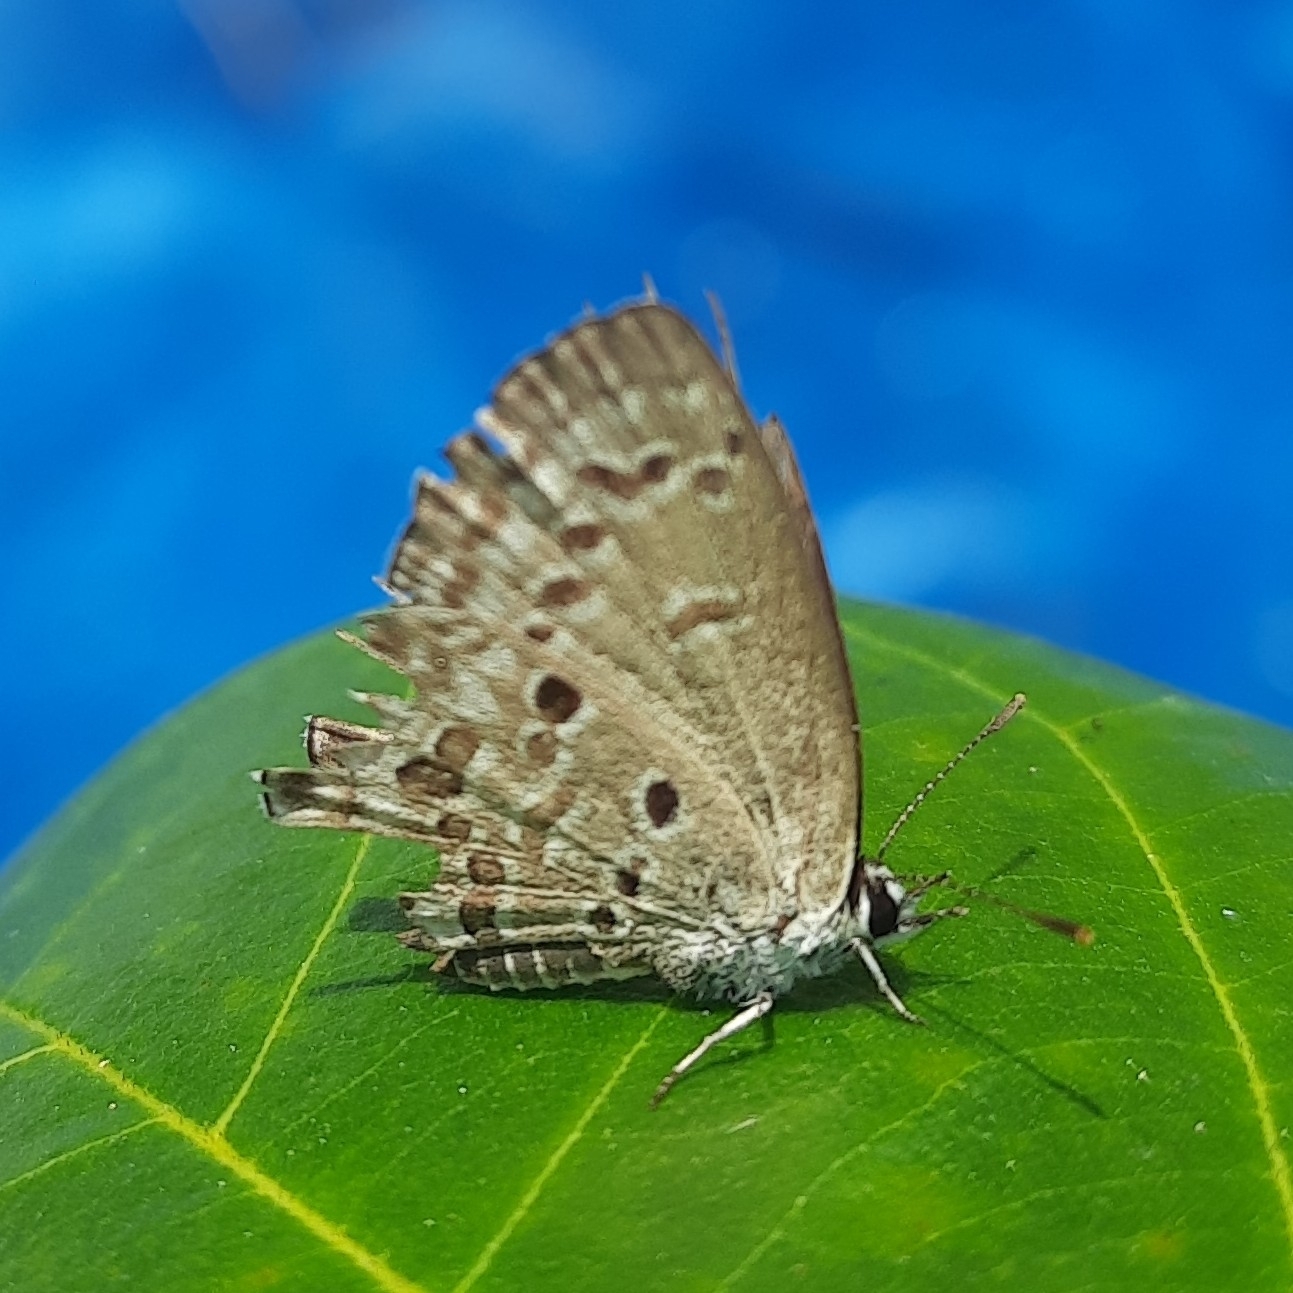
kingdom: Animalia
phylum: Arthropoda
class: Insecta
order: Lepidoptera
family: Lycaenidae
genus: Chilades
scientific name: Chilades laius
